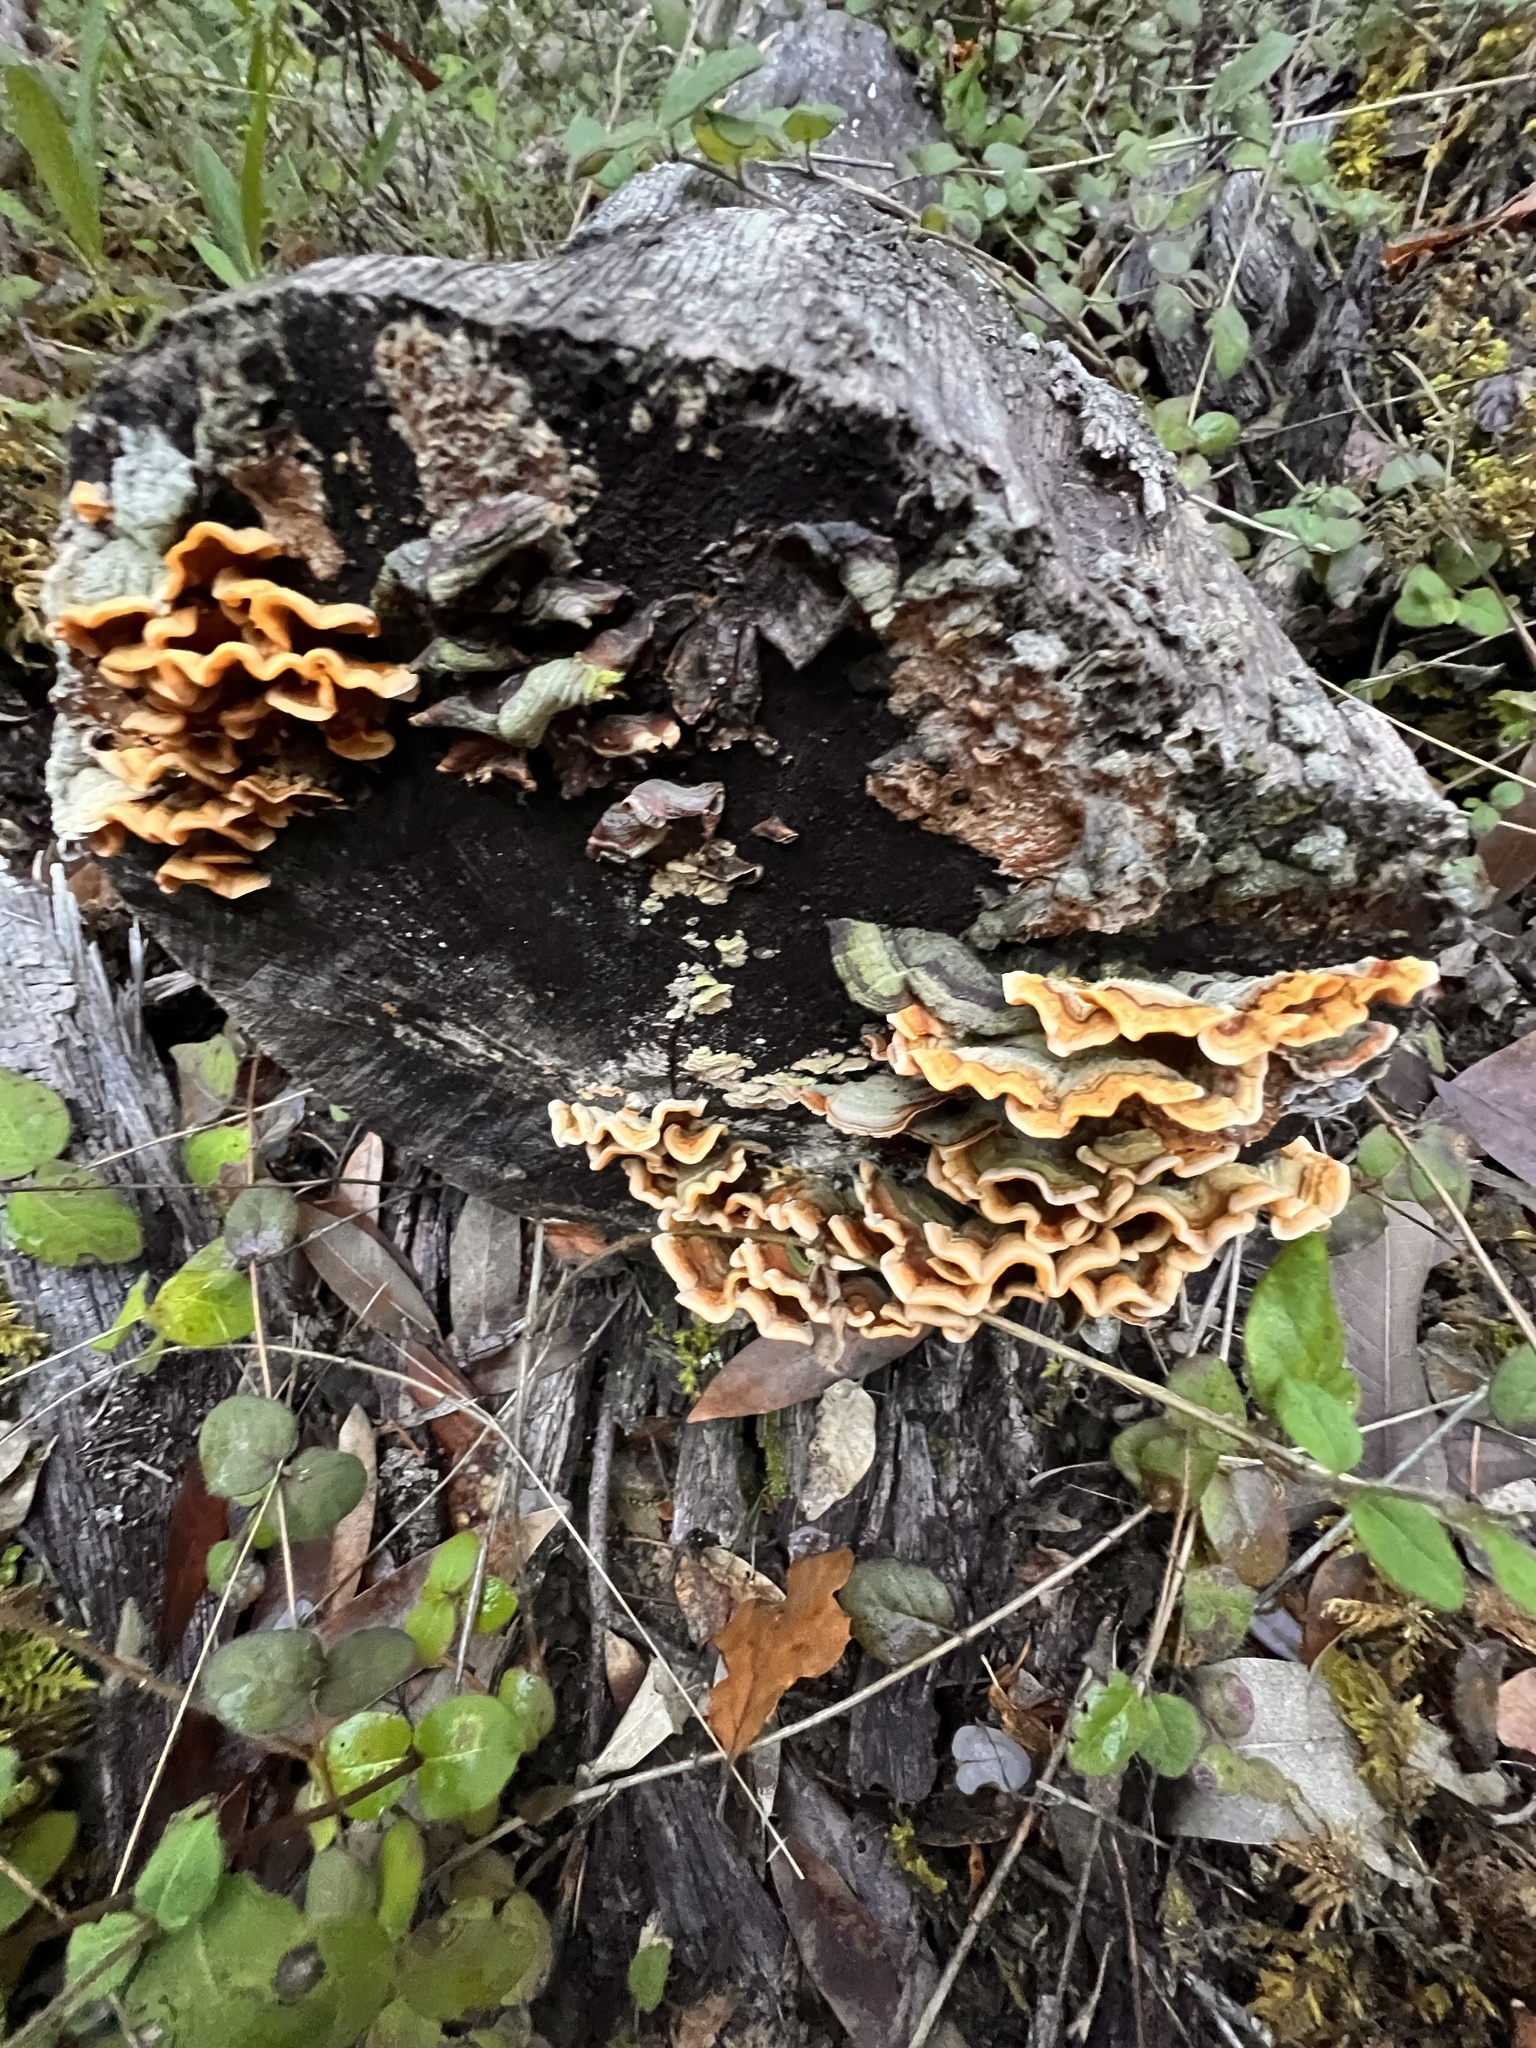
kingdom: Fungi
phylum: Basidiomycota
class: Agaricomycetes
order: Russulales
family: Stereaceae
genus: Stereum
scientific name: Stereum hirsutum
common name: Hairy curtain crust
